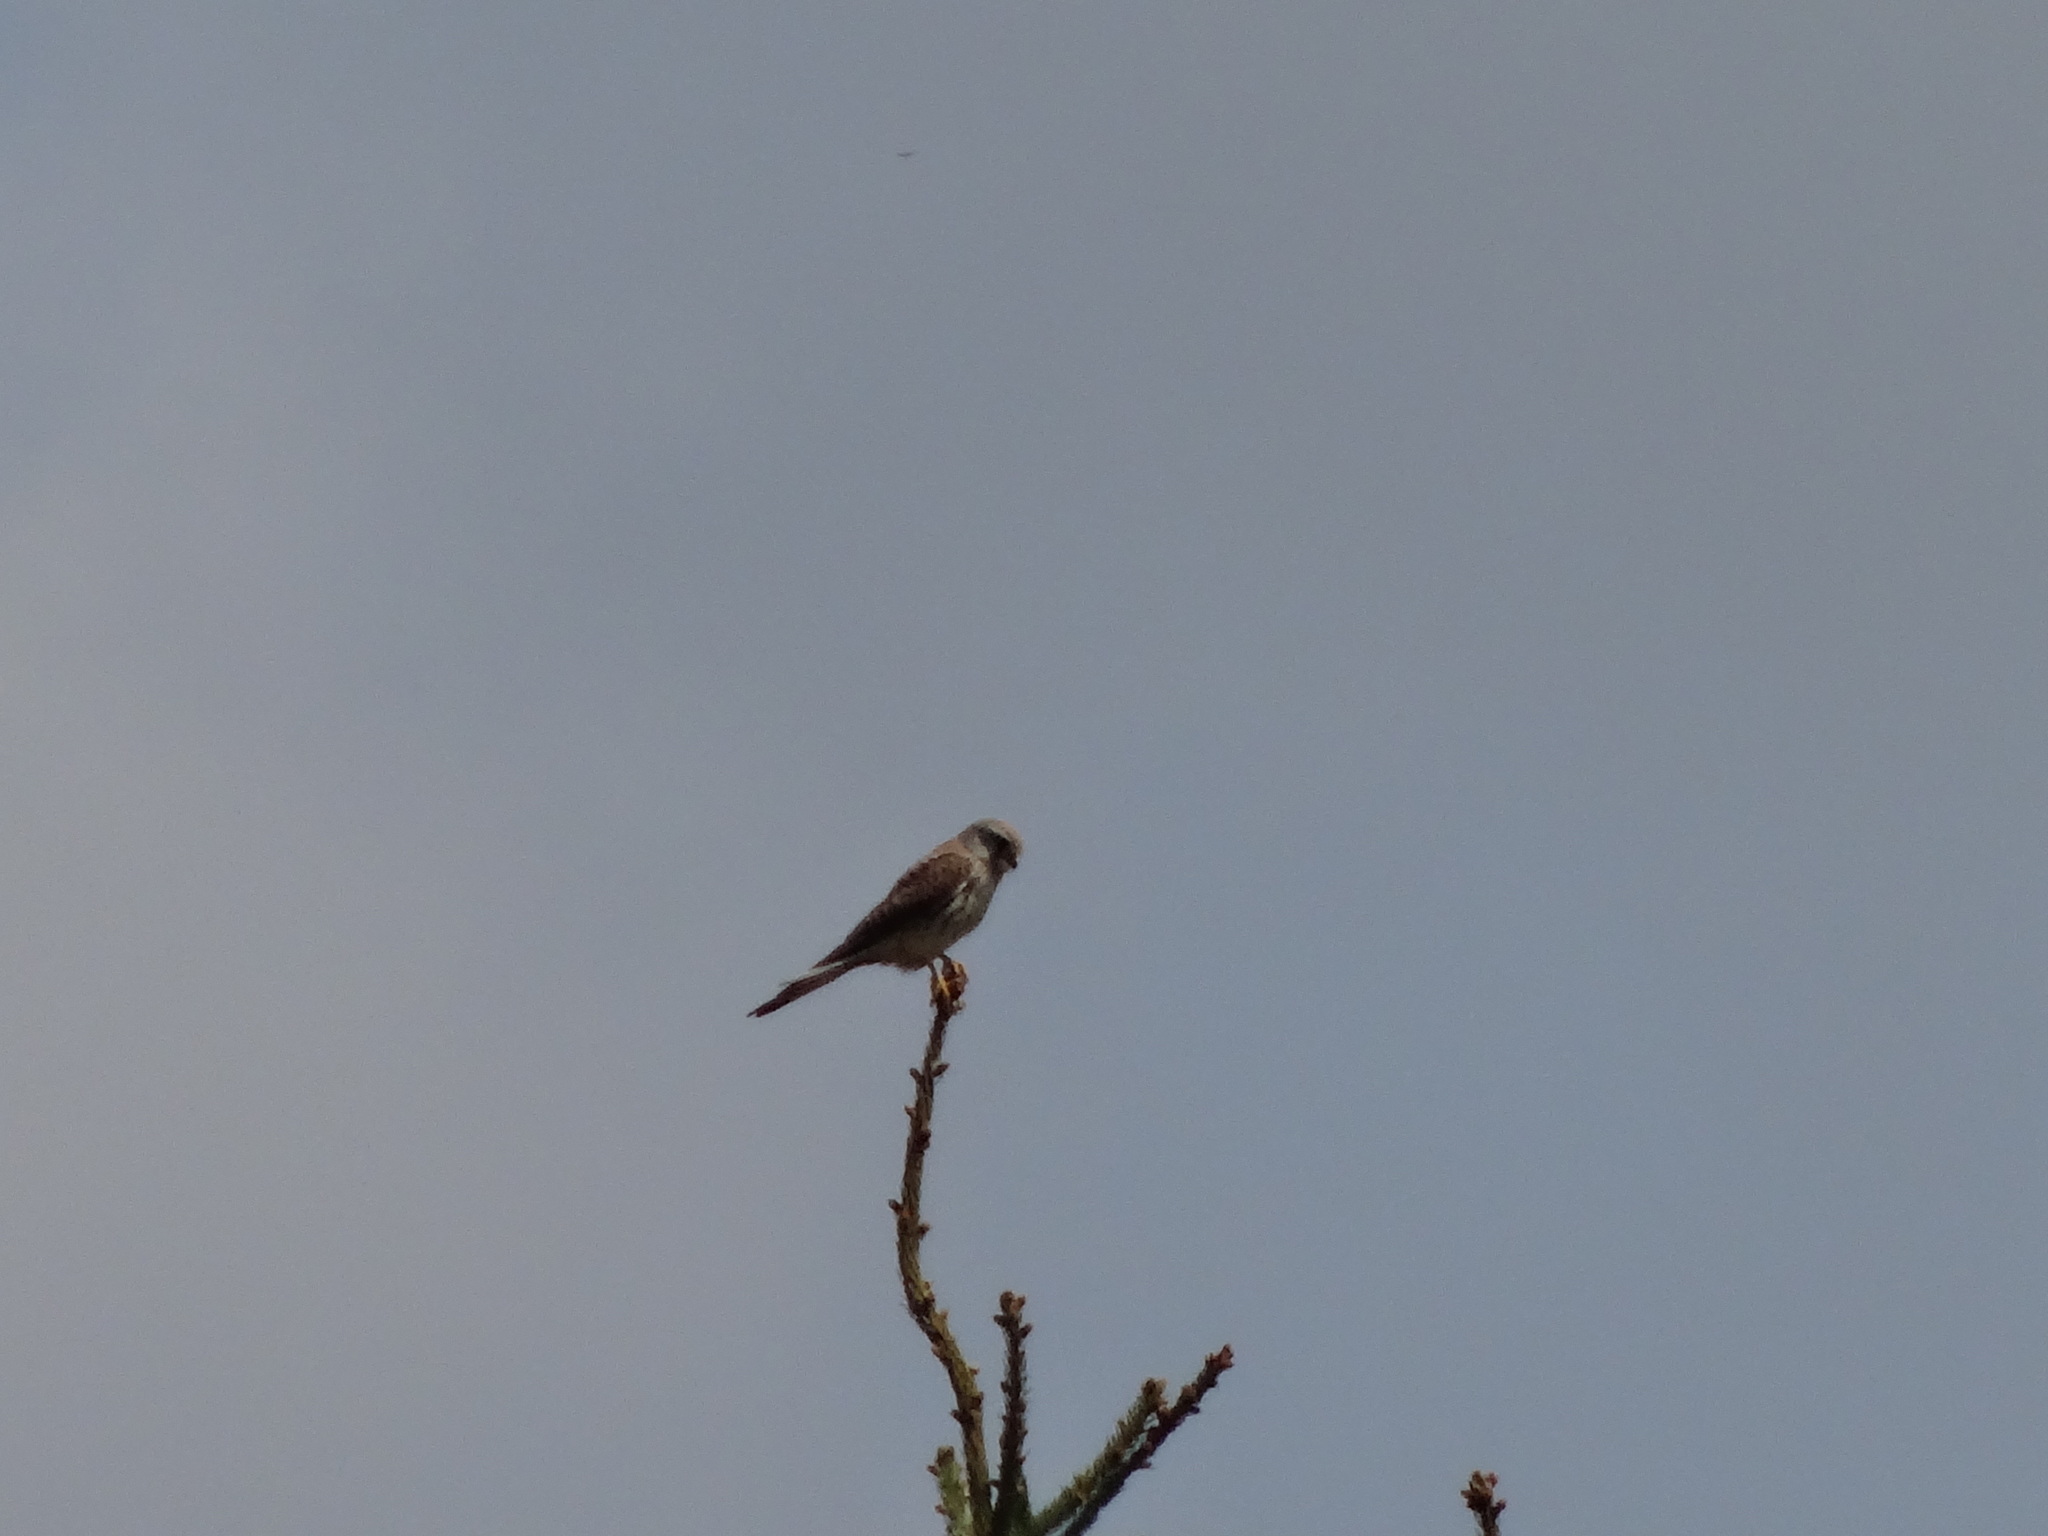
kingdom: Animalia
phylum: Chordata
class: Aves
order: Falconiformes
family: Falconidae
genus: Falco
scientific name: Falco tinnunculus
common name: Common kestrel
